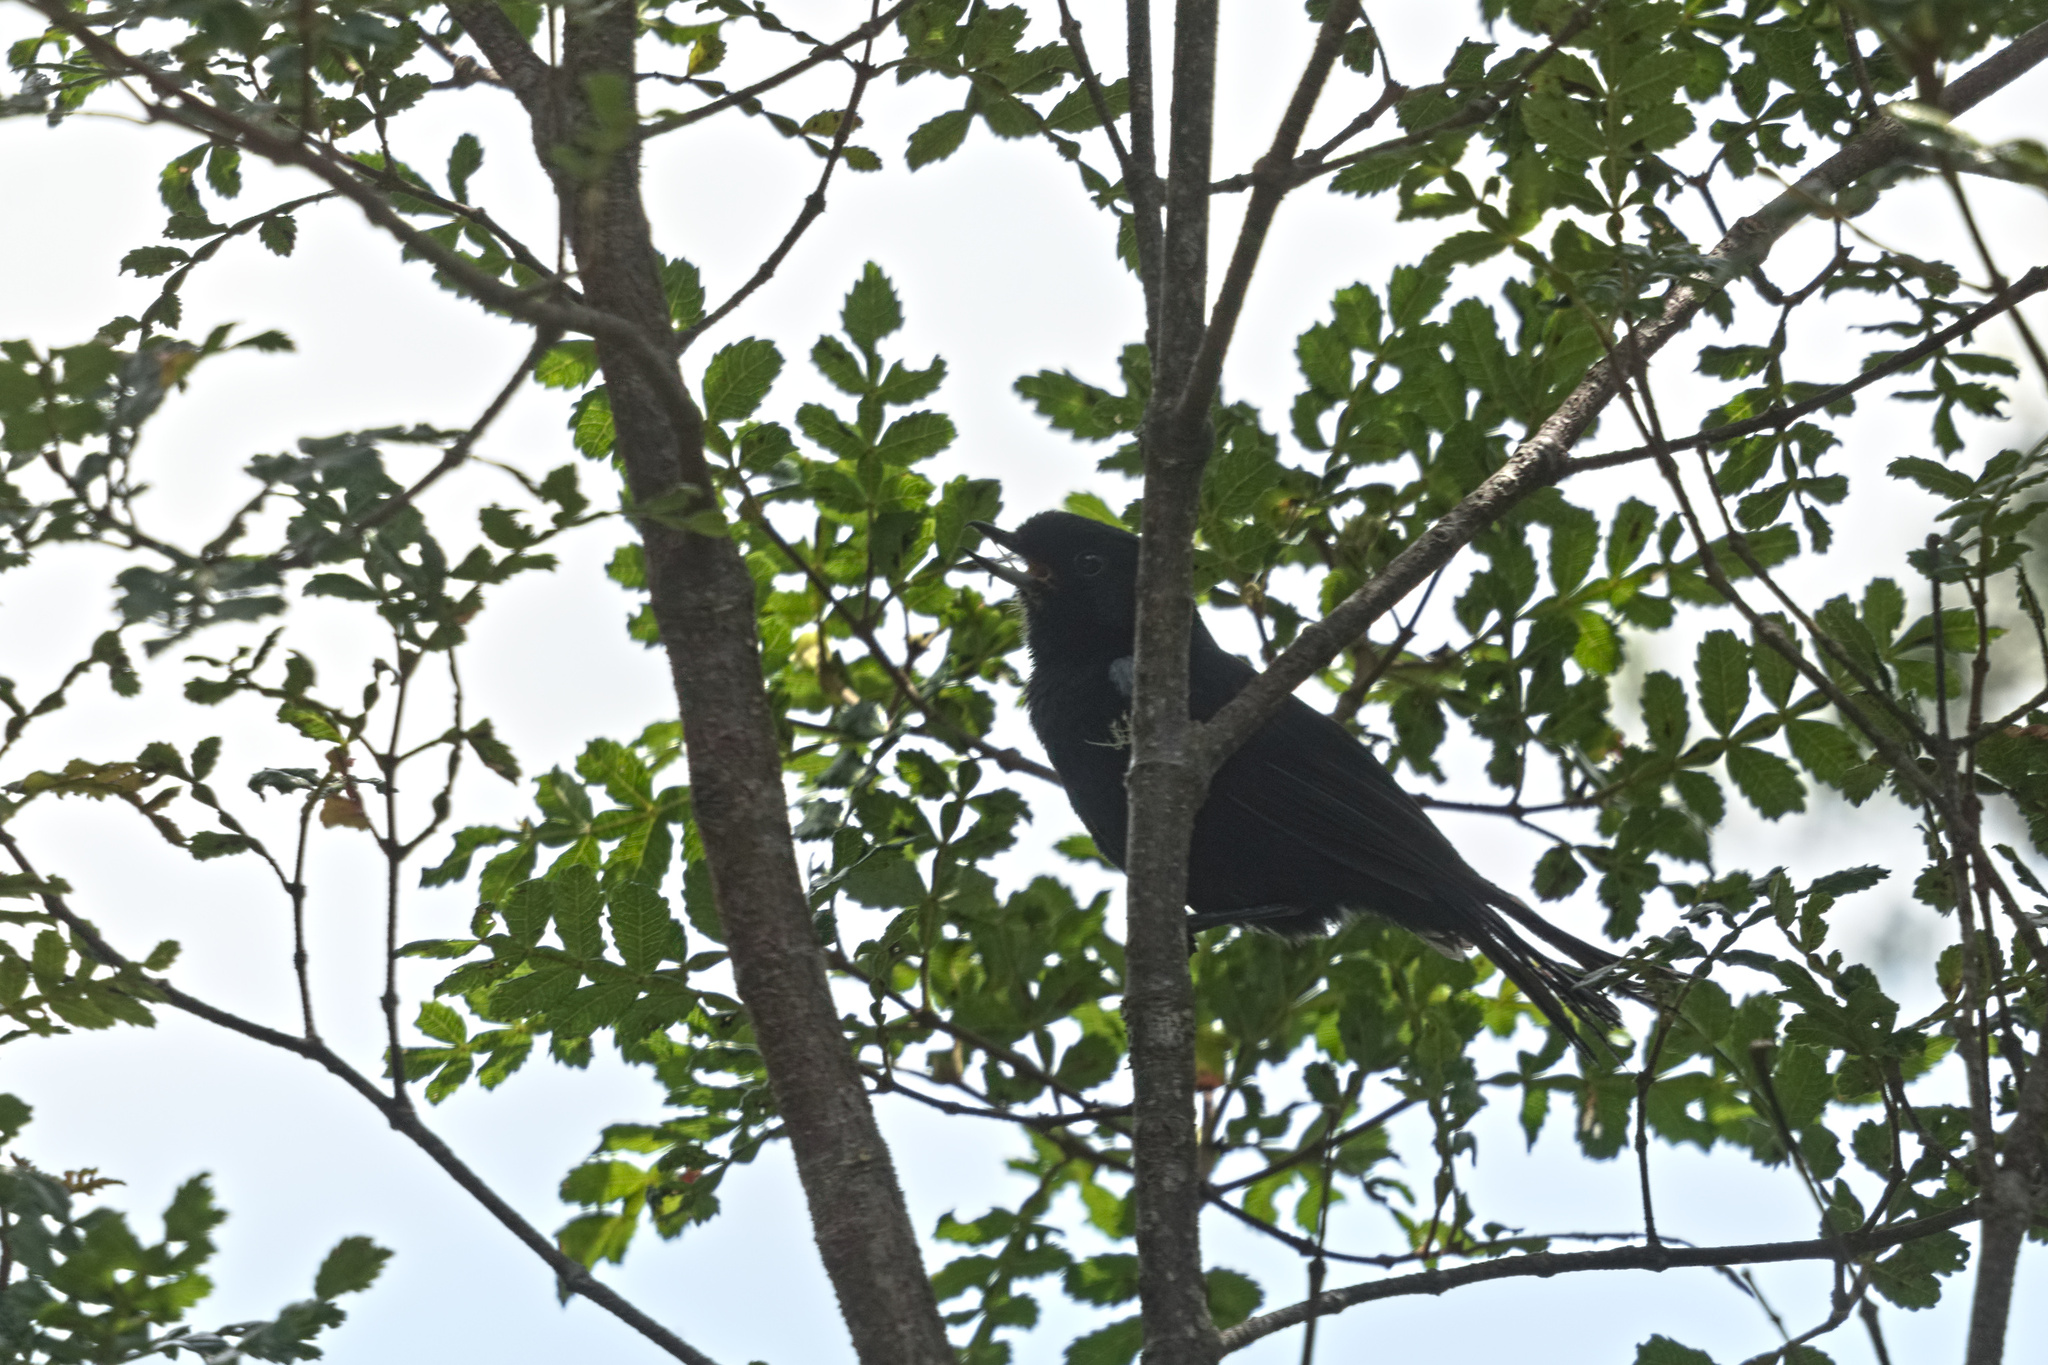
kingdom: Animalia
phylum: Chordata
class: Aves
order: Passeriformes
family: Thraupidae
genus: Diglossa
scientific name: Diglossa lafresnayii
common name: Glossy flowerpiercer
